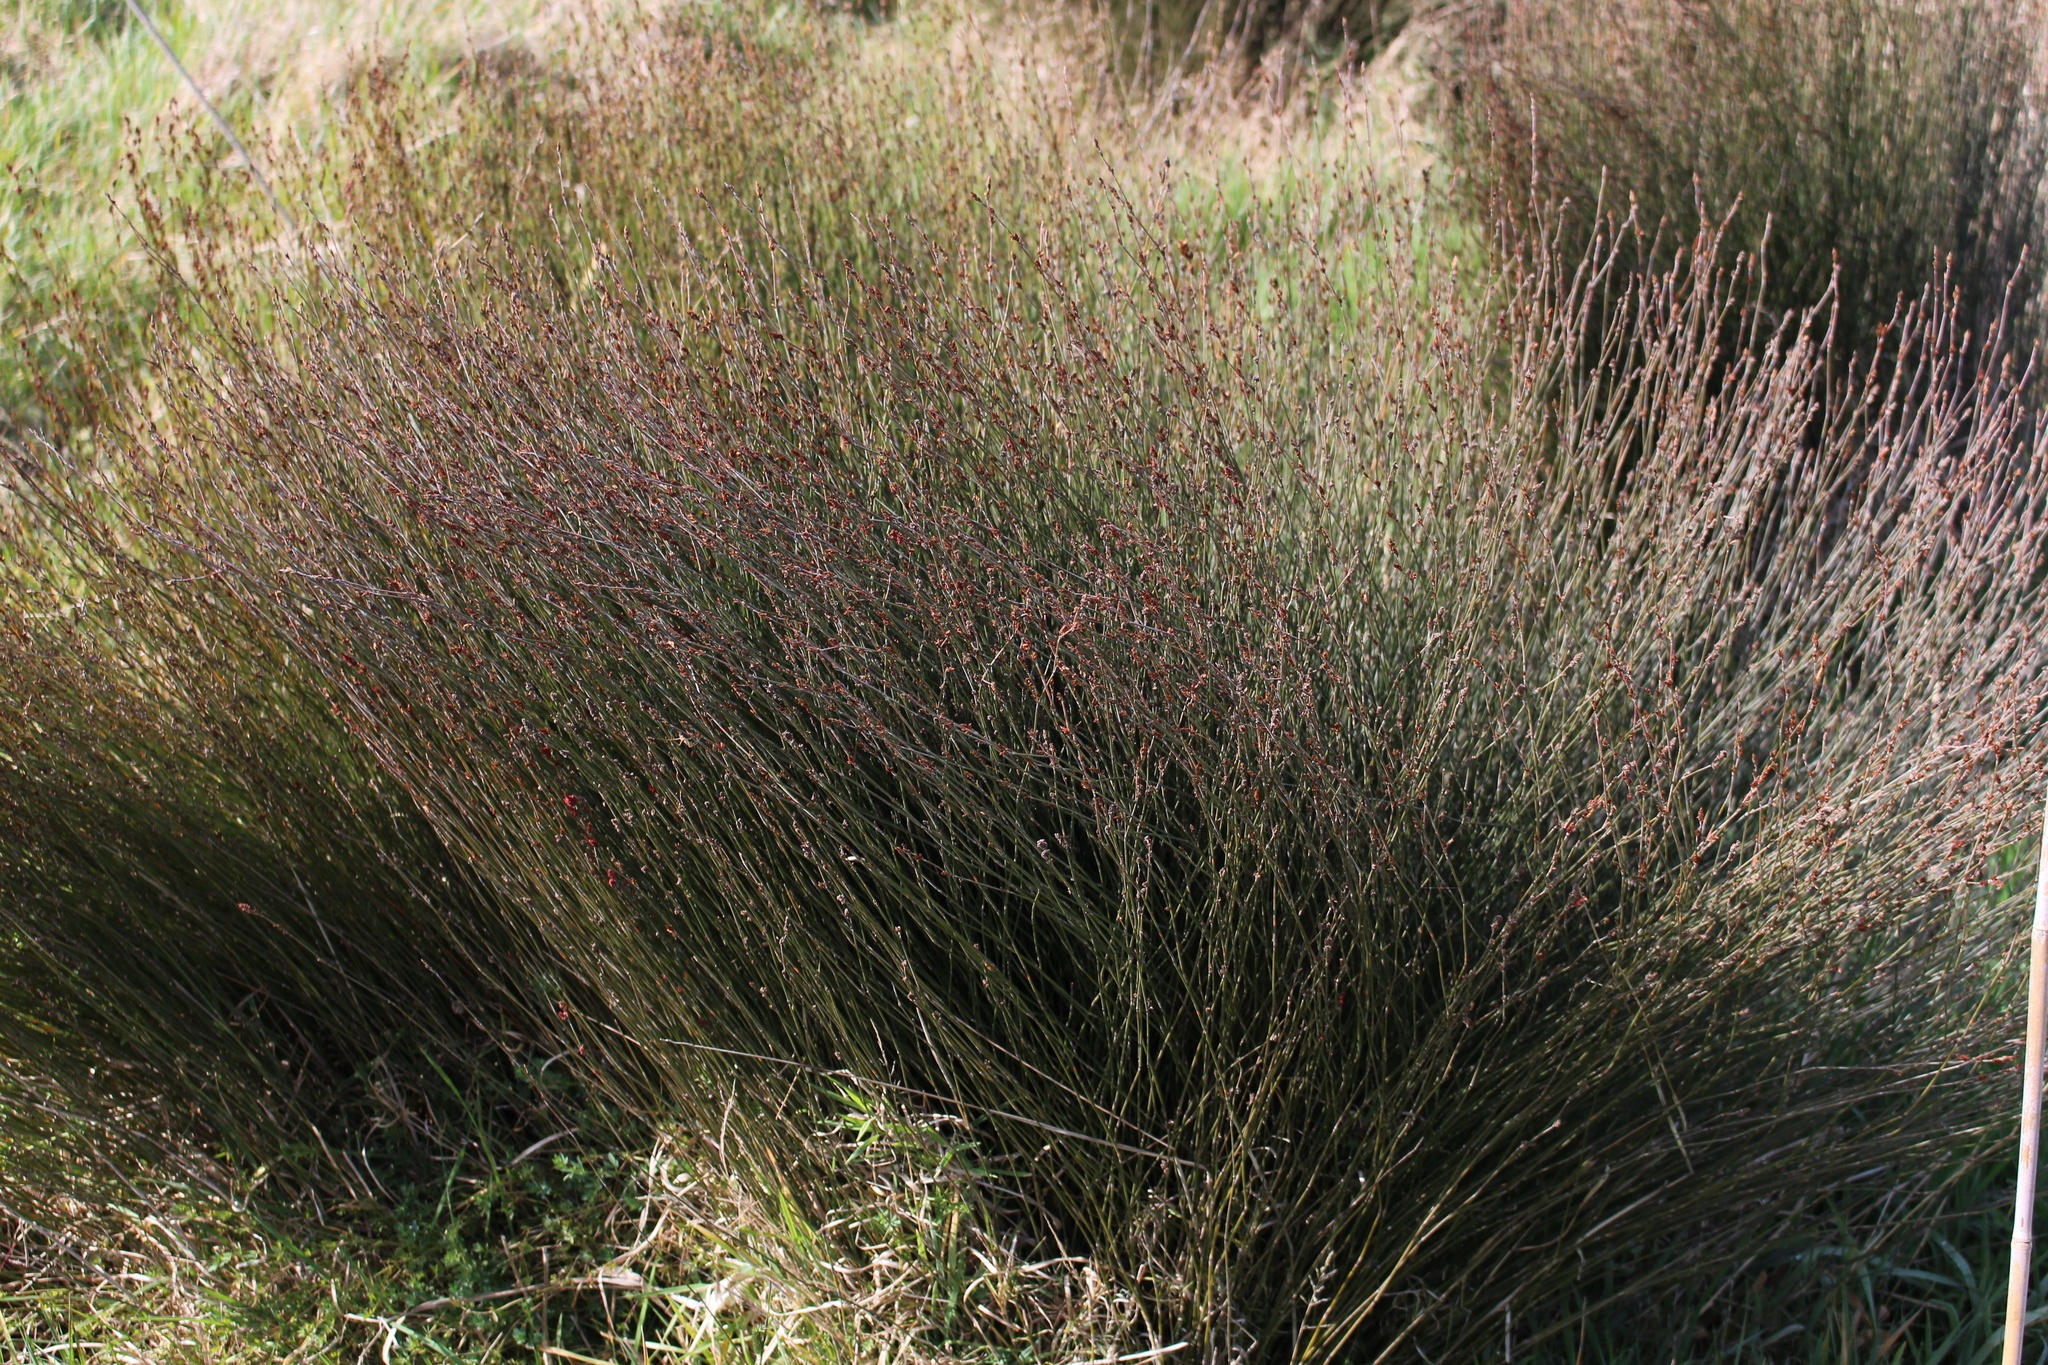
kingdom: Plantae
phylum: Tracheophyta
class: Liliopsida
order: Poales
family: Restionaceae
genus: Apodasmia
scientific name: Apodasmia similis
